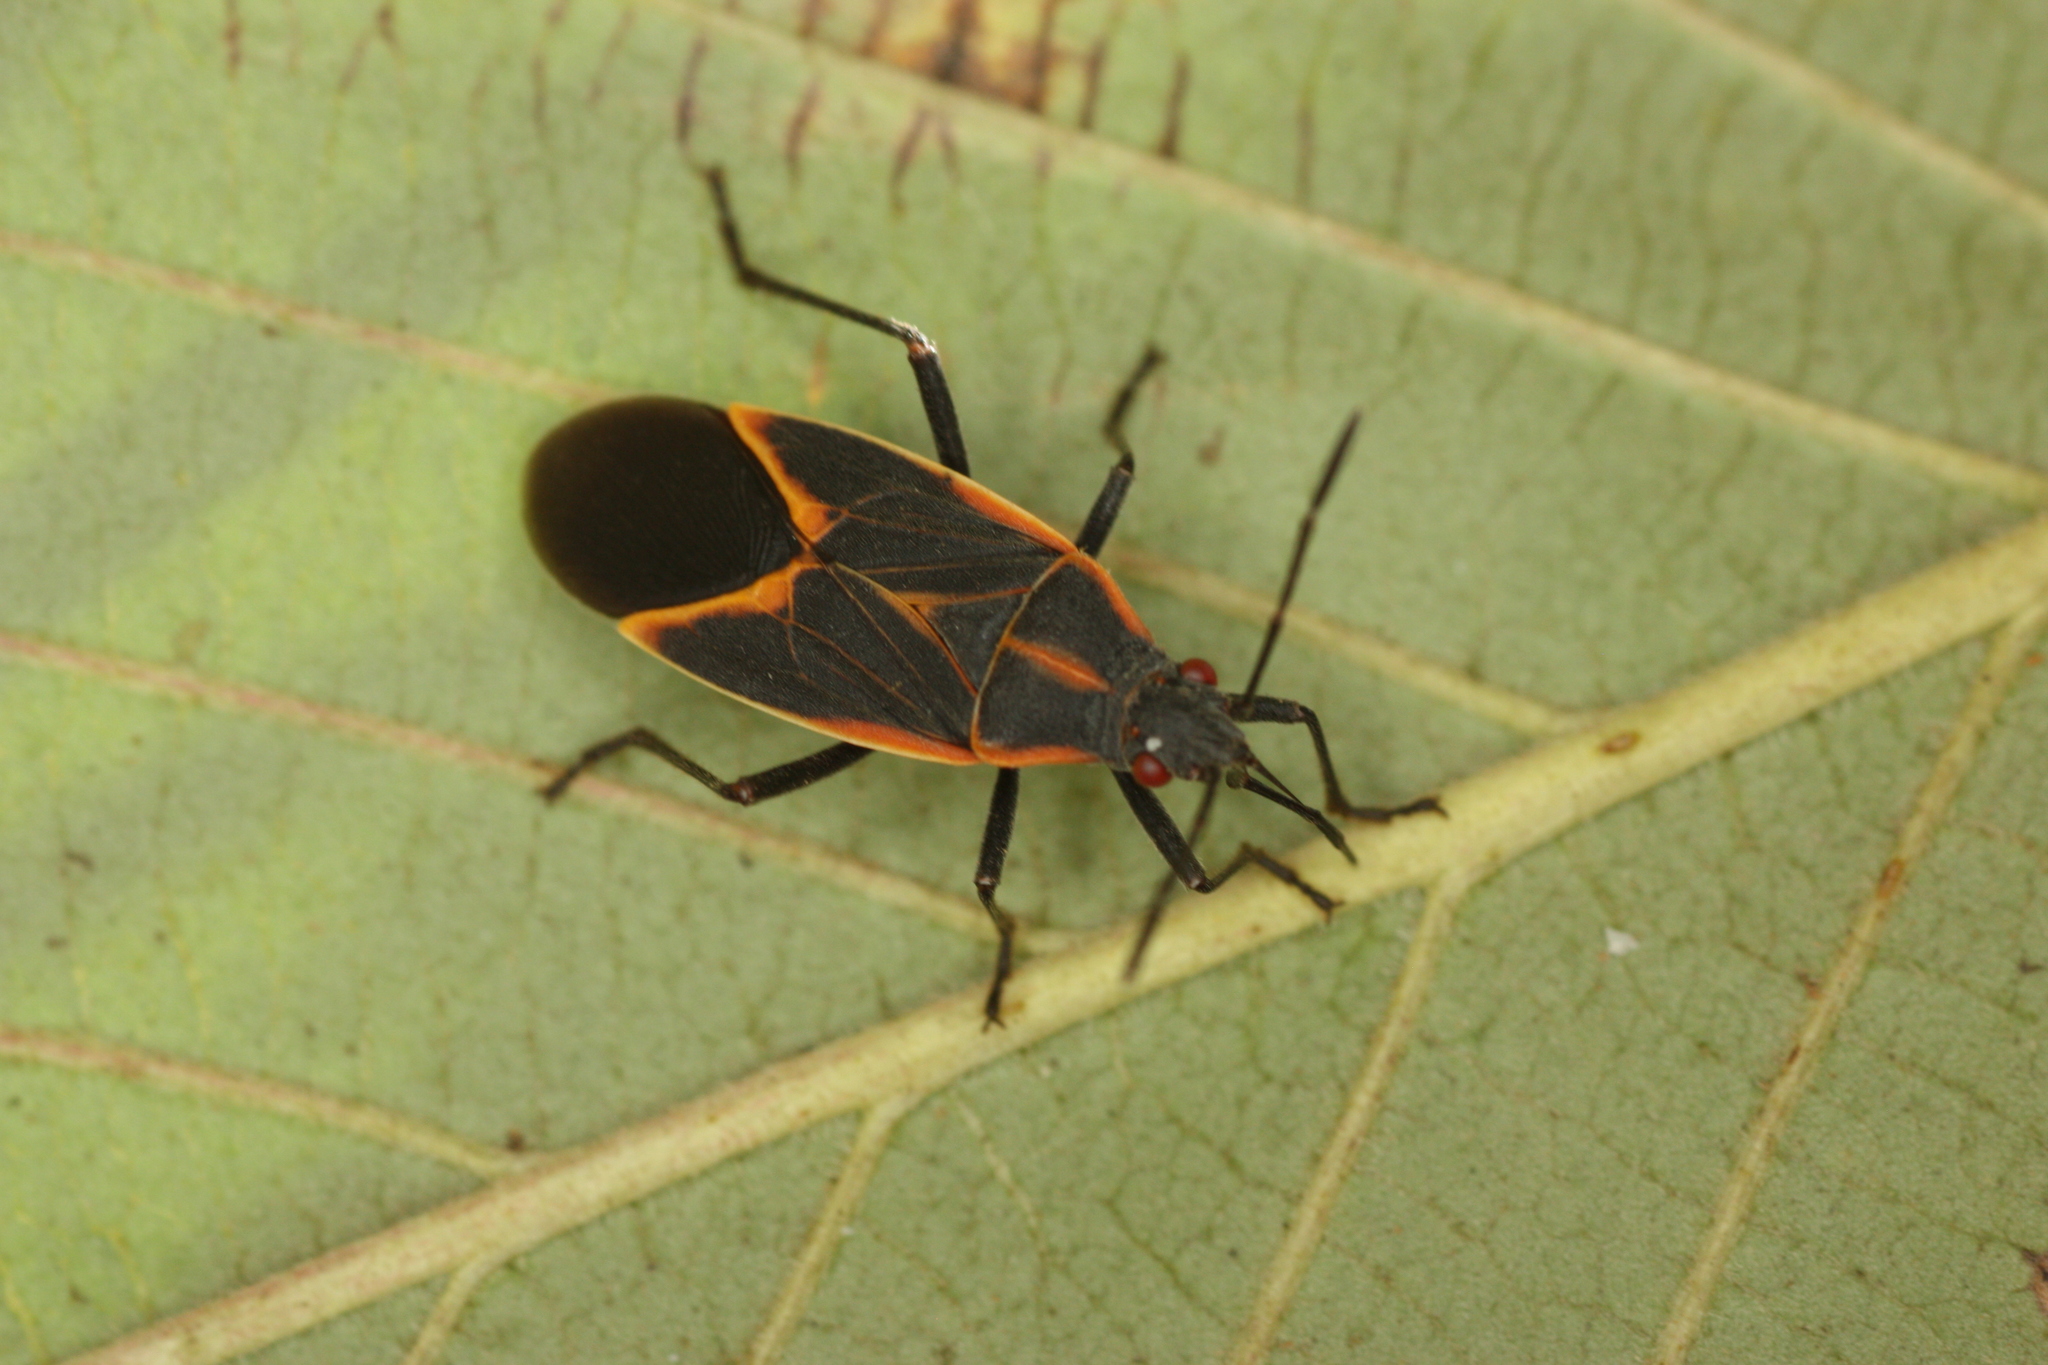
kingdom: Animalia
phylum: Arthropoda
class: Insecta
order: Hemiptera
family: Rhopalidae
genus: Boisea
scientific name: Boisea trivittata
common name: Boxelder bug
